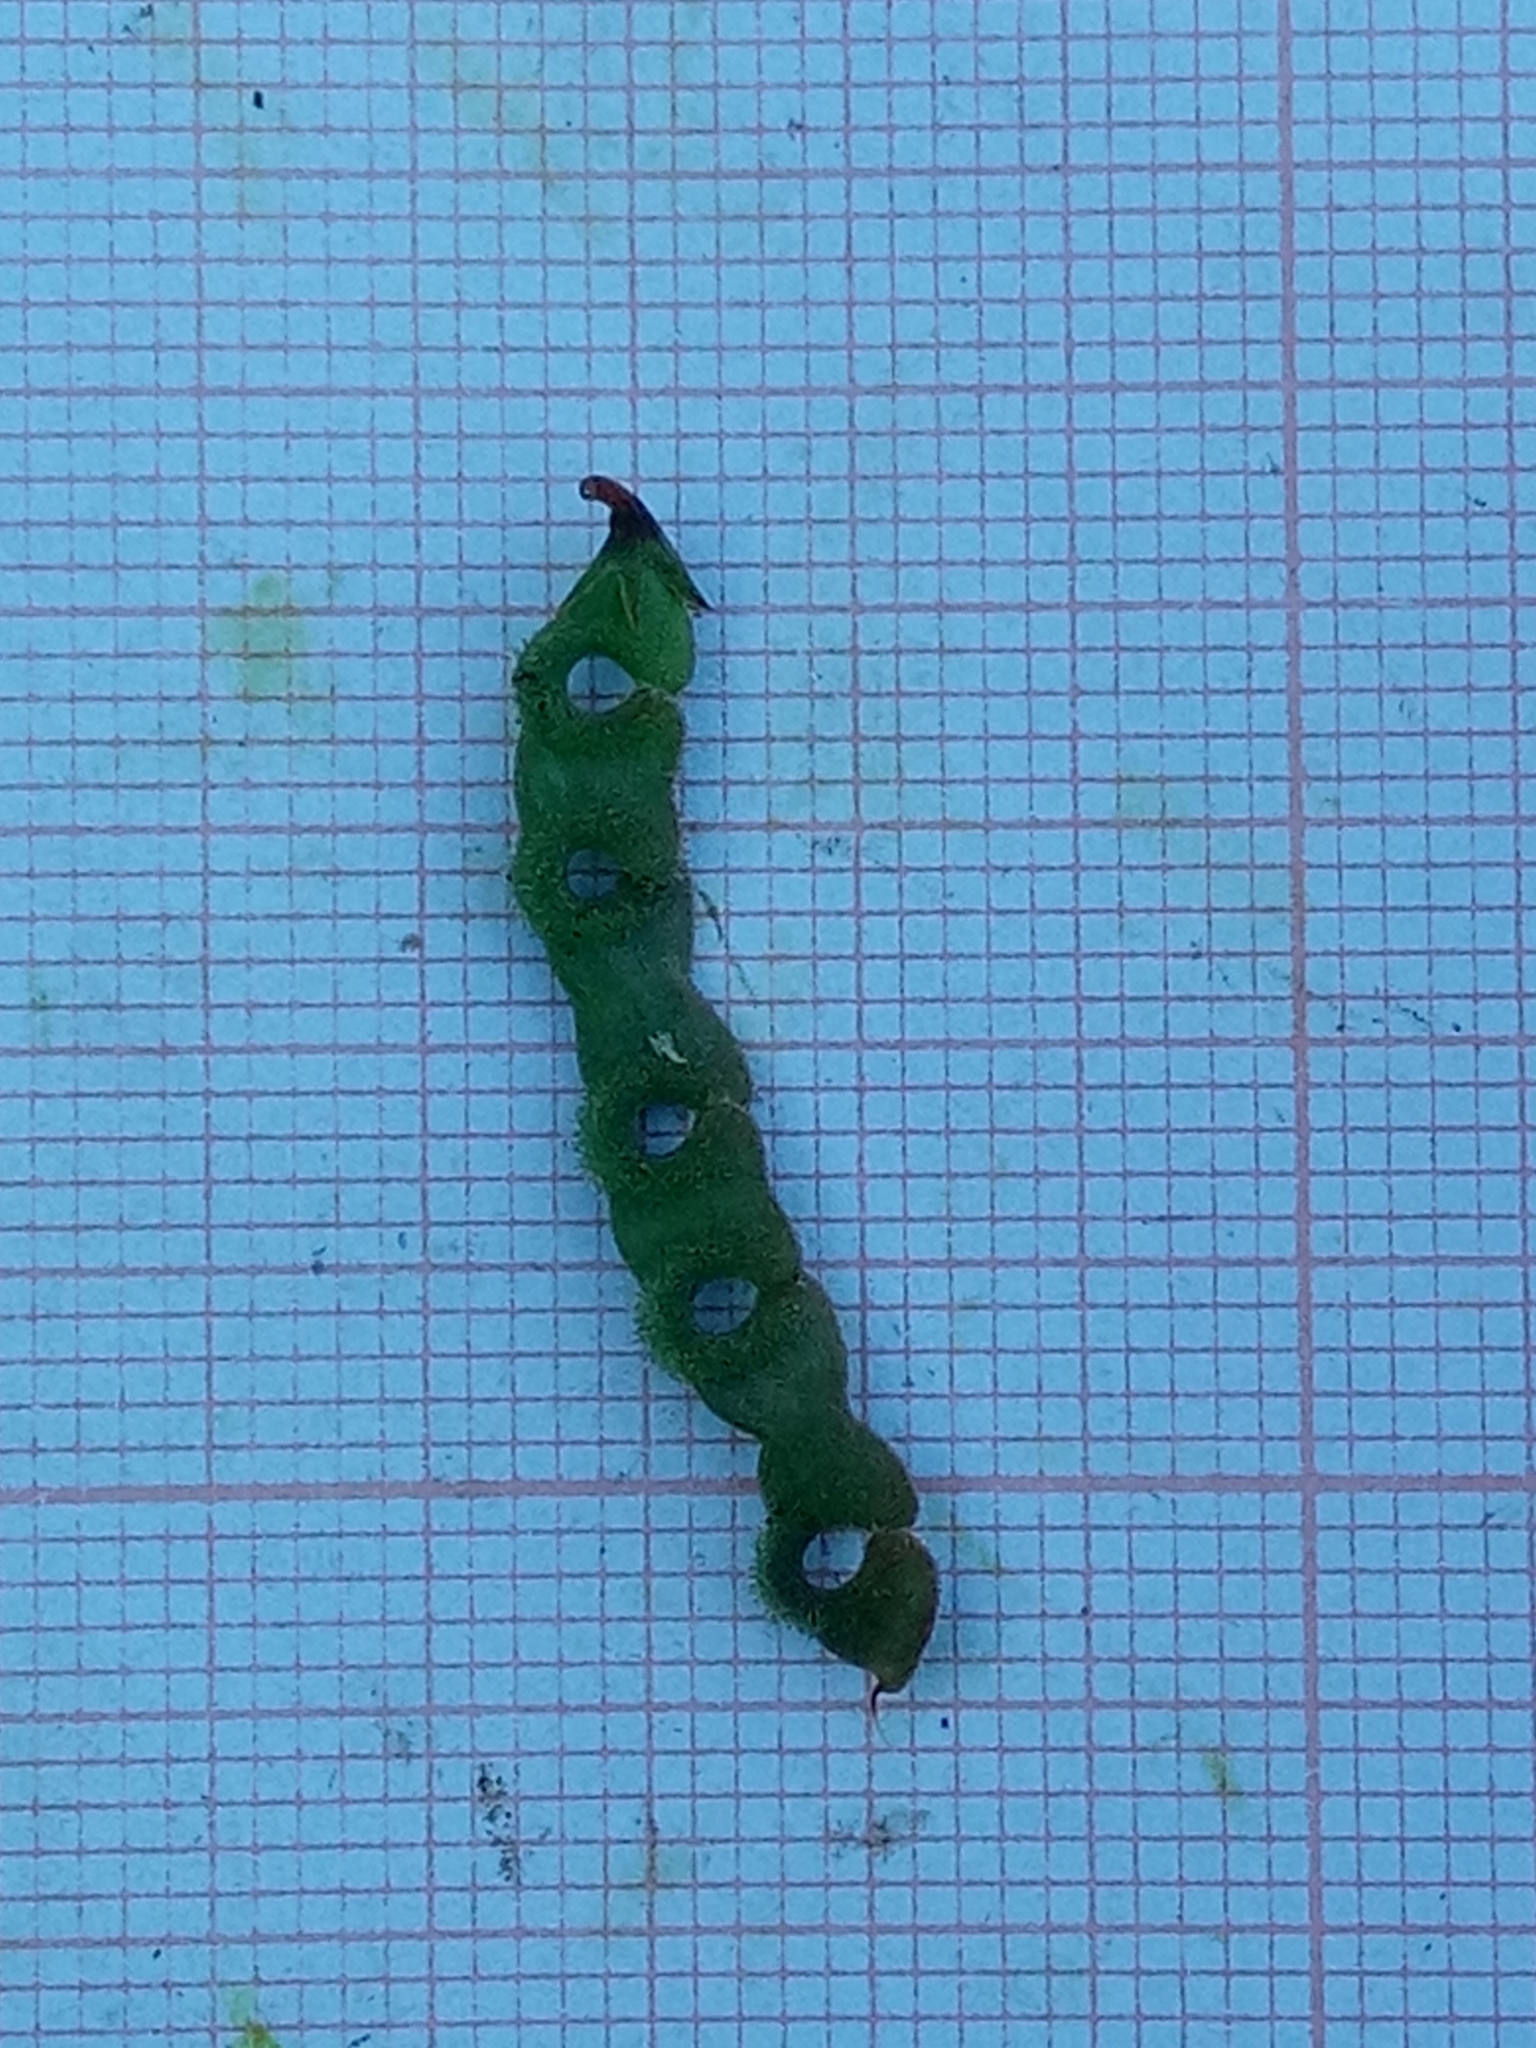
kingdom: Plantae
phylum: Tracheophyta
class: Magnoliopsida
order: Fabales
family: Fabaceae
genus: Hippocrepis
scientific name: Hippocrepis unisiliquosa
